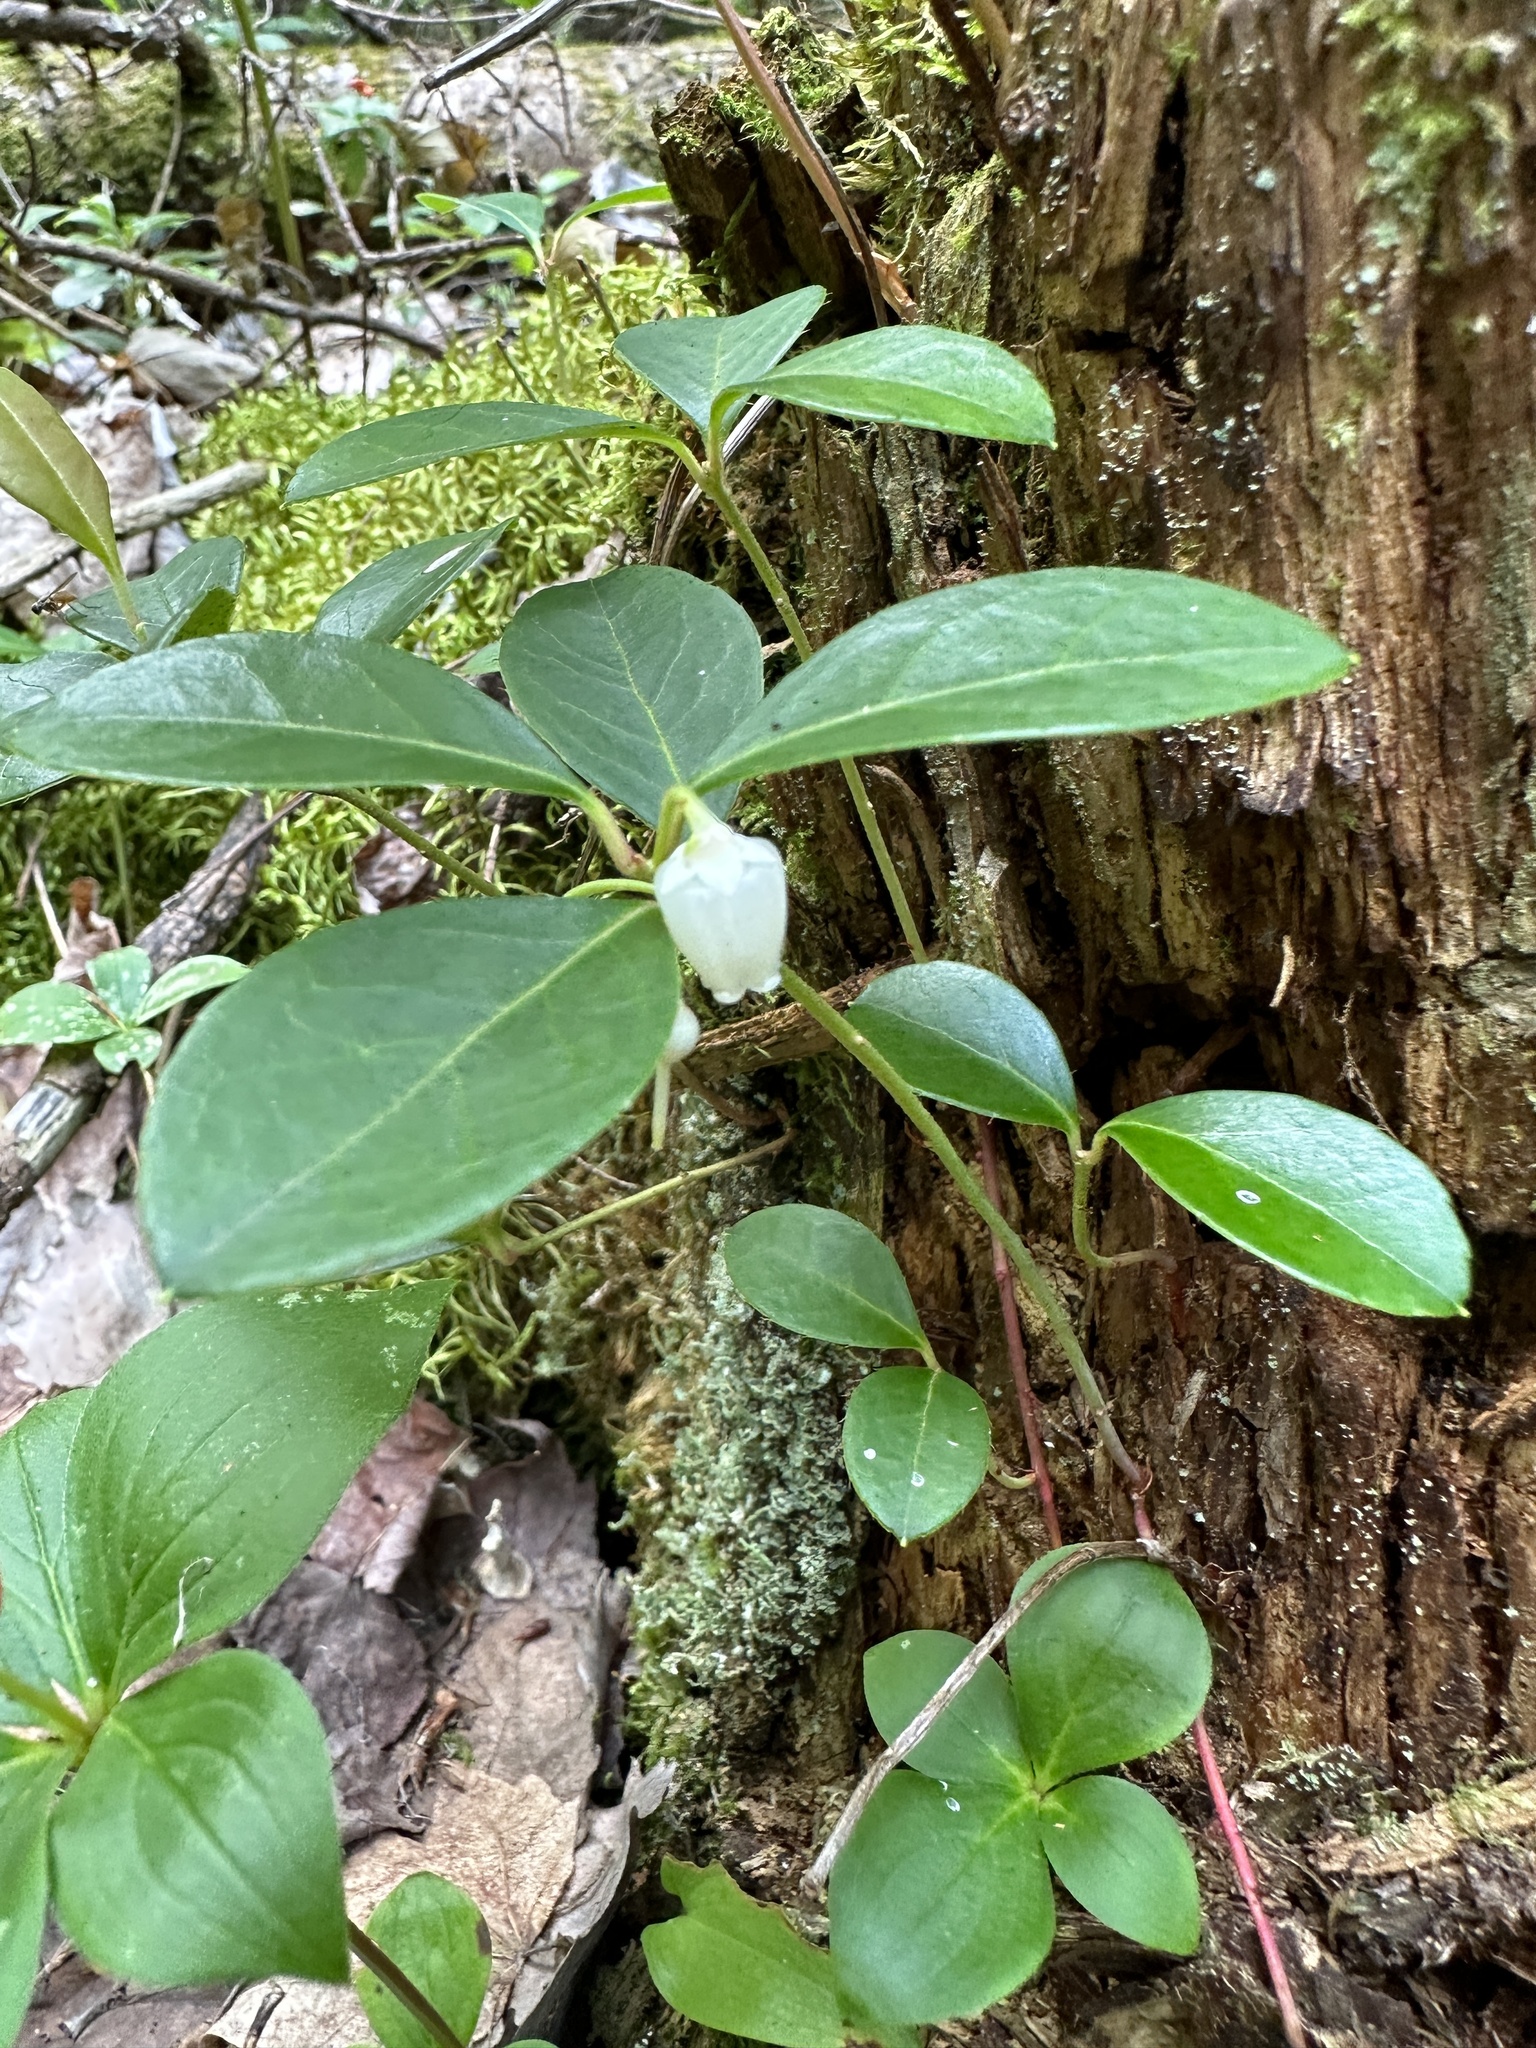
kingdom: Plantae
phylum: Tracheophyta
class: Magnoliopsida
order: Ericales
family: Ericaceae
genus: Gaultheria
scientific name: Gaultheria procumbens
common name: Checkerberry
